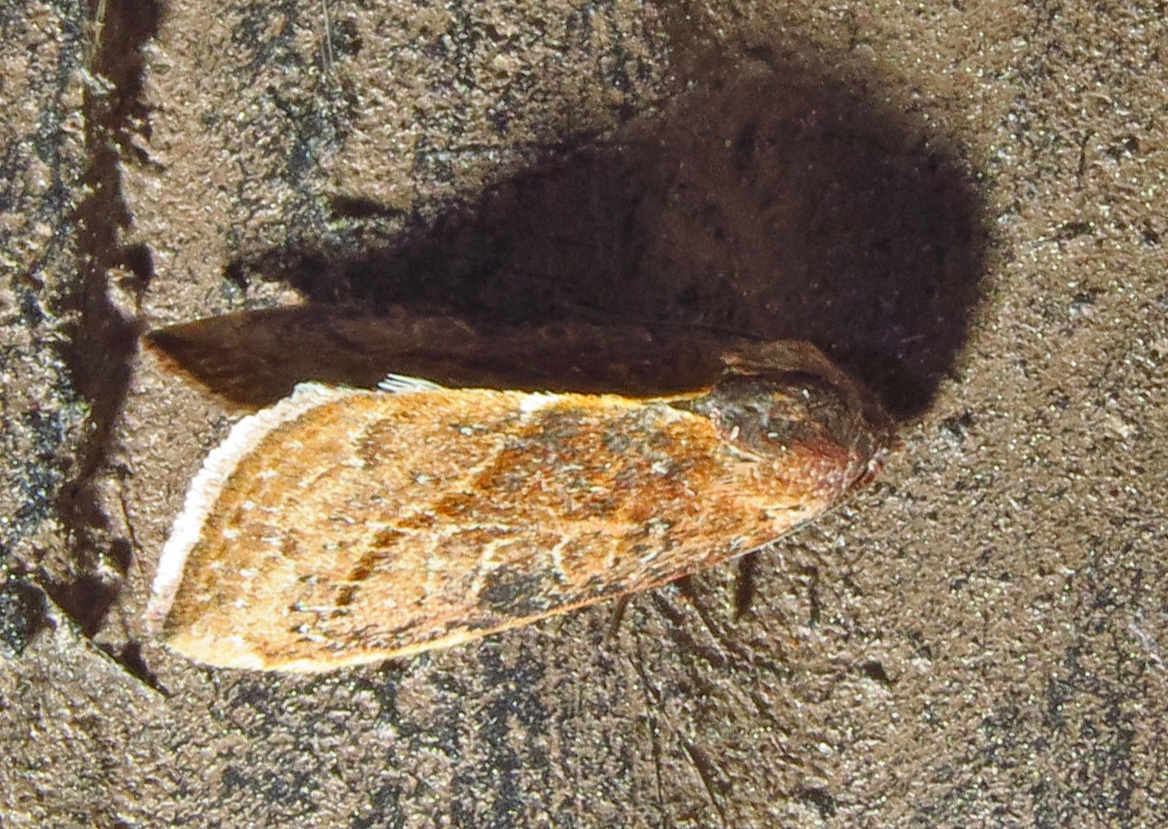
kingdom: Animalia
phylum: Arthropoda
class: Insecta
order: Lepidoptera
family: Noctuidae
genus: Galgula
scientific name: Galgula partita
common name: Wedgeling
